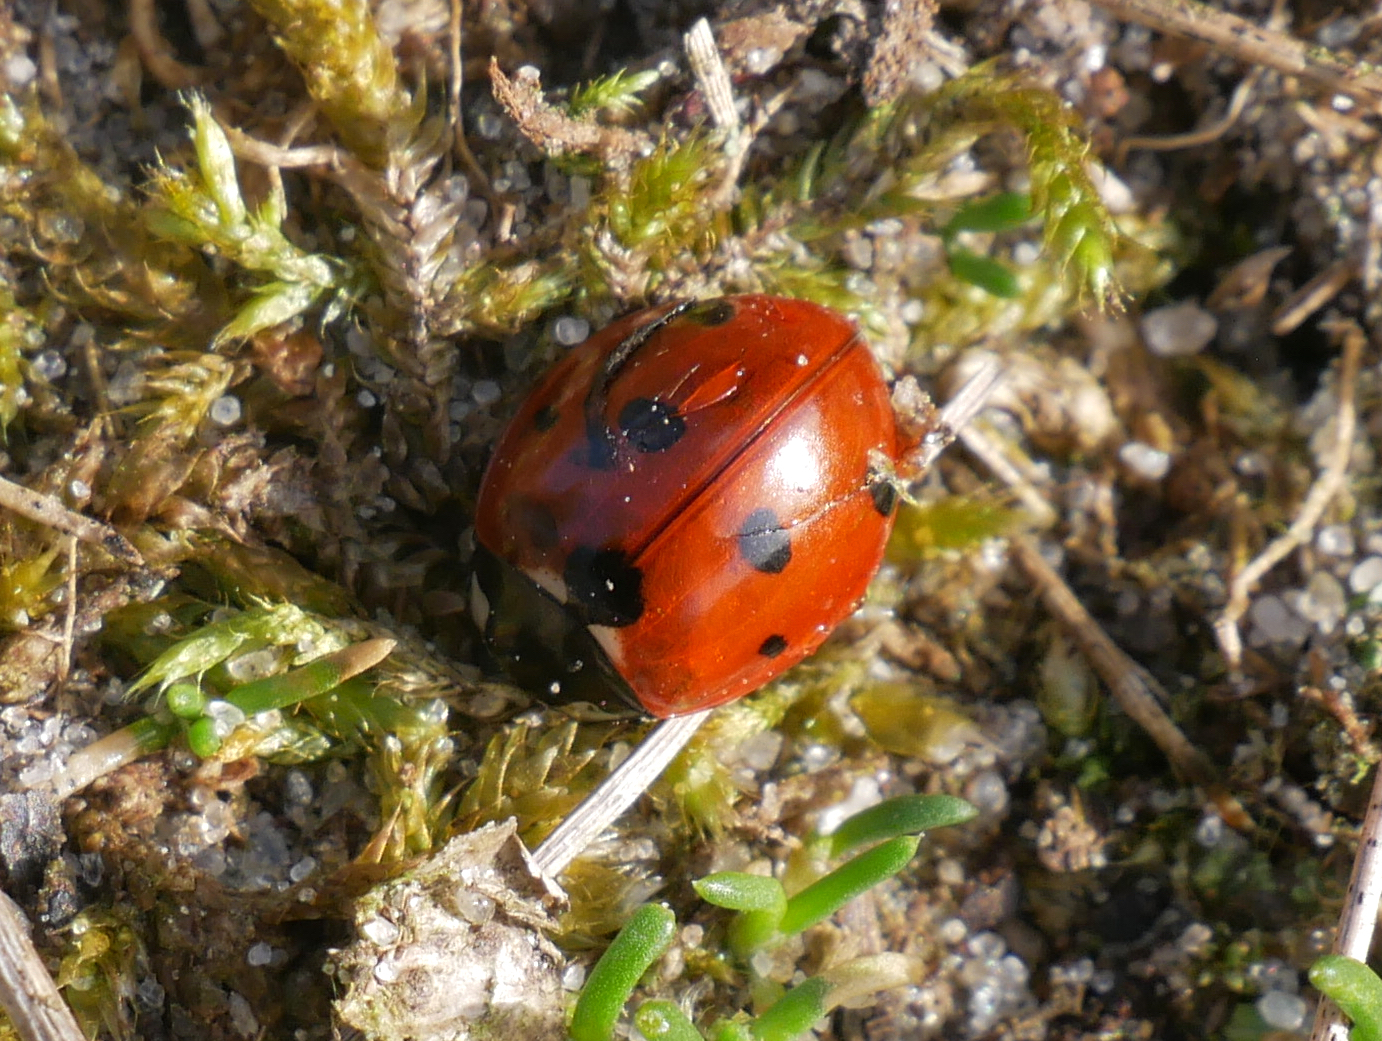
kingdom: Animalia
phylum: Arthropoda
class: Insecta
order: Coleoptera
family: Coccinellidae
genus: Coccinella
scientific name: Coccinella septempunctata
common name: Sevenspotted lady beetle
